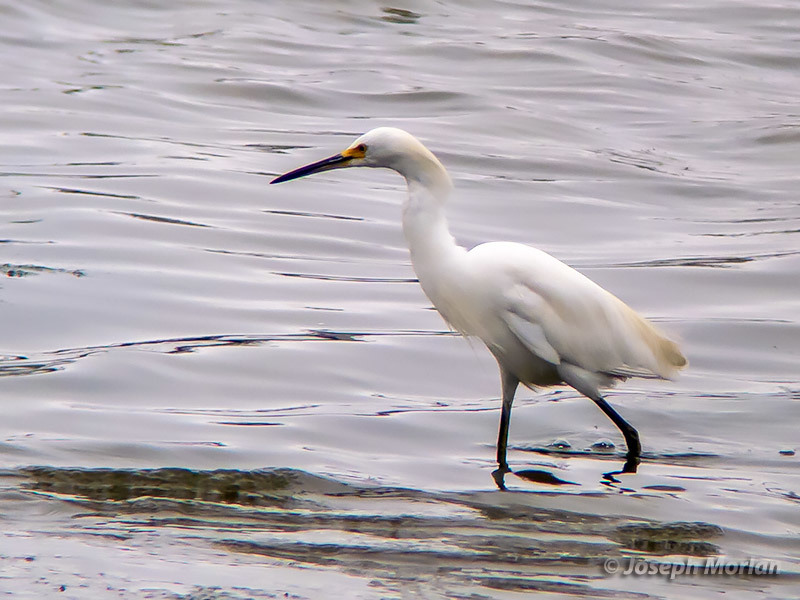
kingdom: Animalia
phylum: Chordata
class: Aves
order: Pelecaniformes
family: Ardeidae
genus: Egretta
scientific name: Egretta thula
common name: Snowy egret
